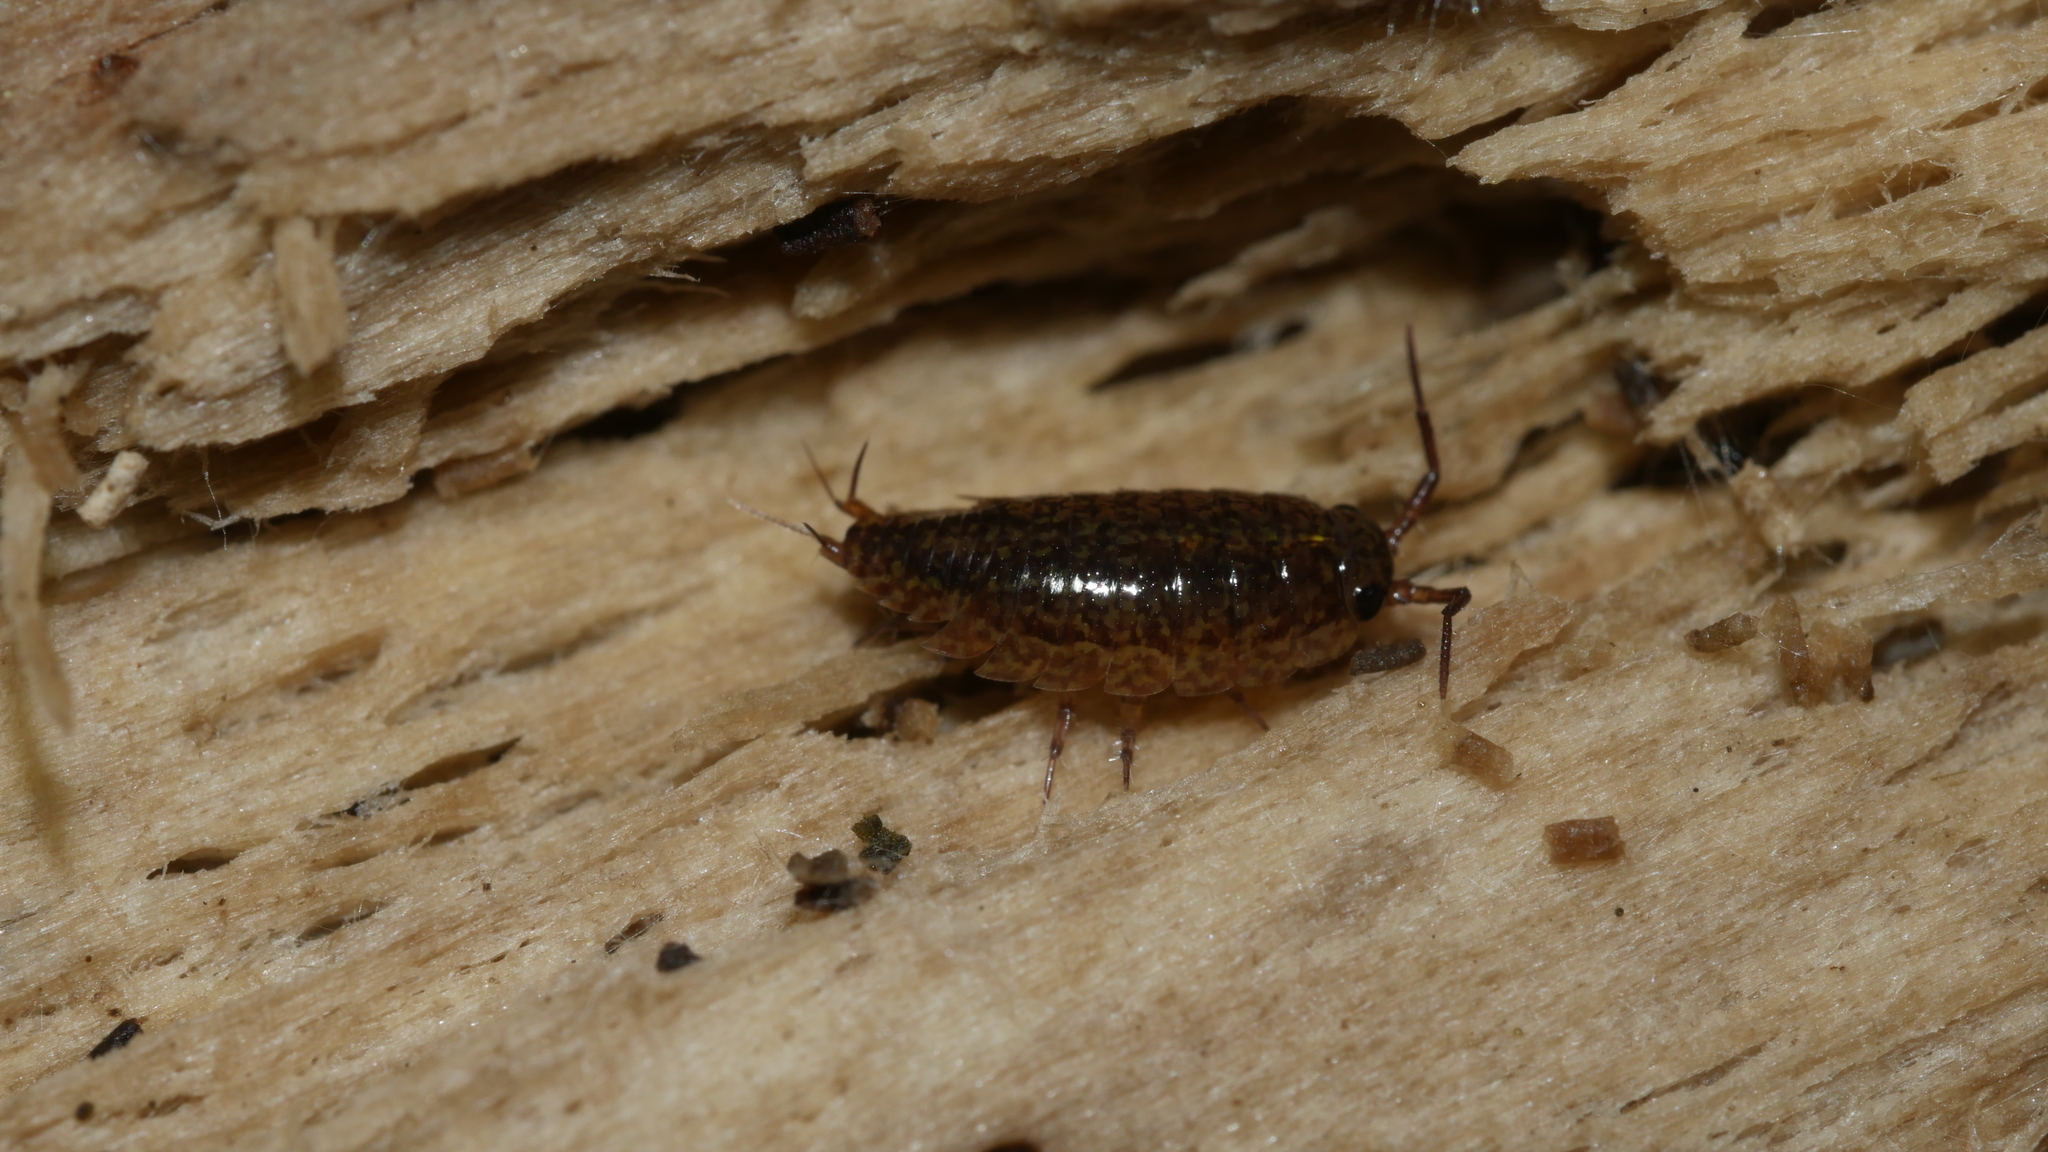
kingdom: Animalia
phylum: Arthropoda
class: Malacostraca
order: Isopoda
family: Ligiidae
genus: Ligidium
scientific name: Ligidium elrodii
